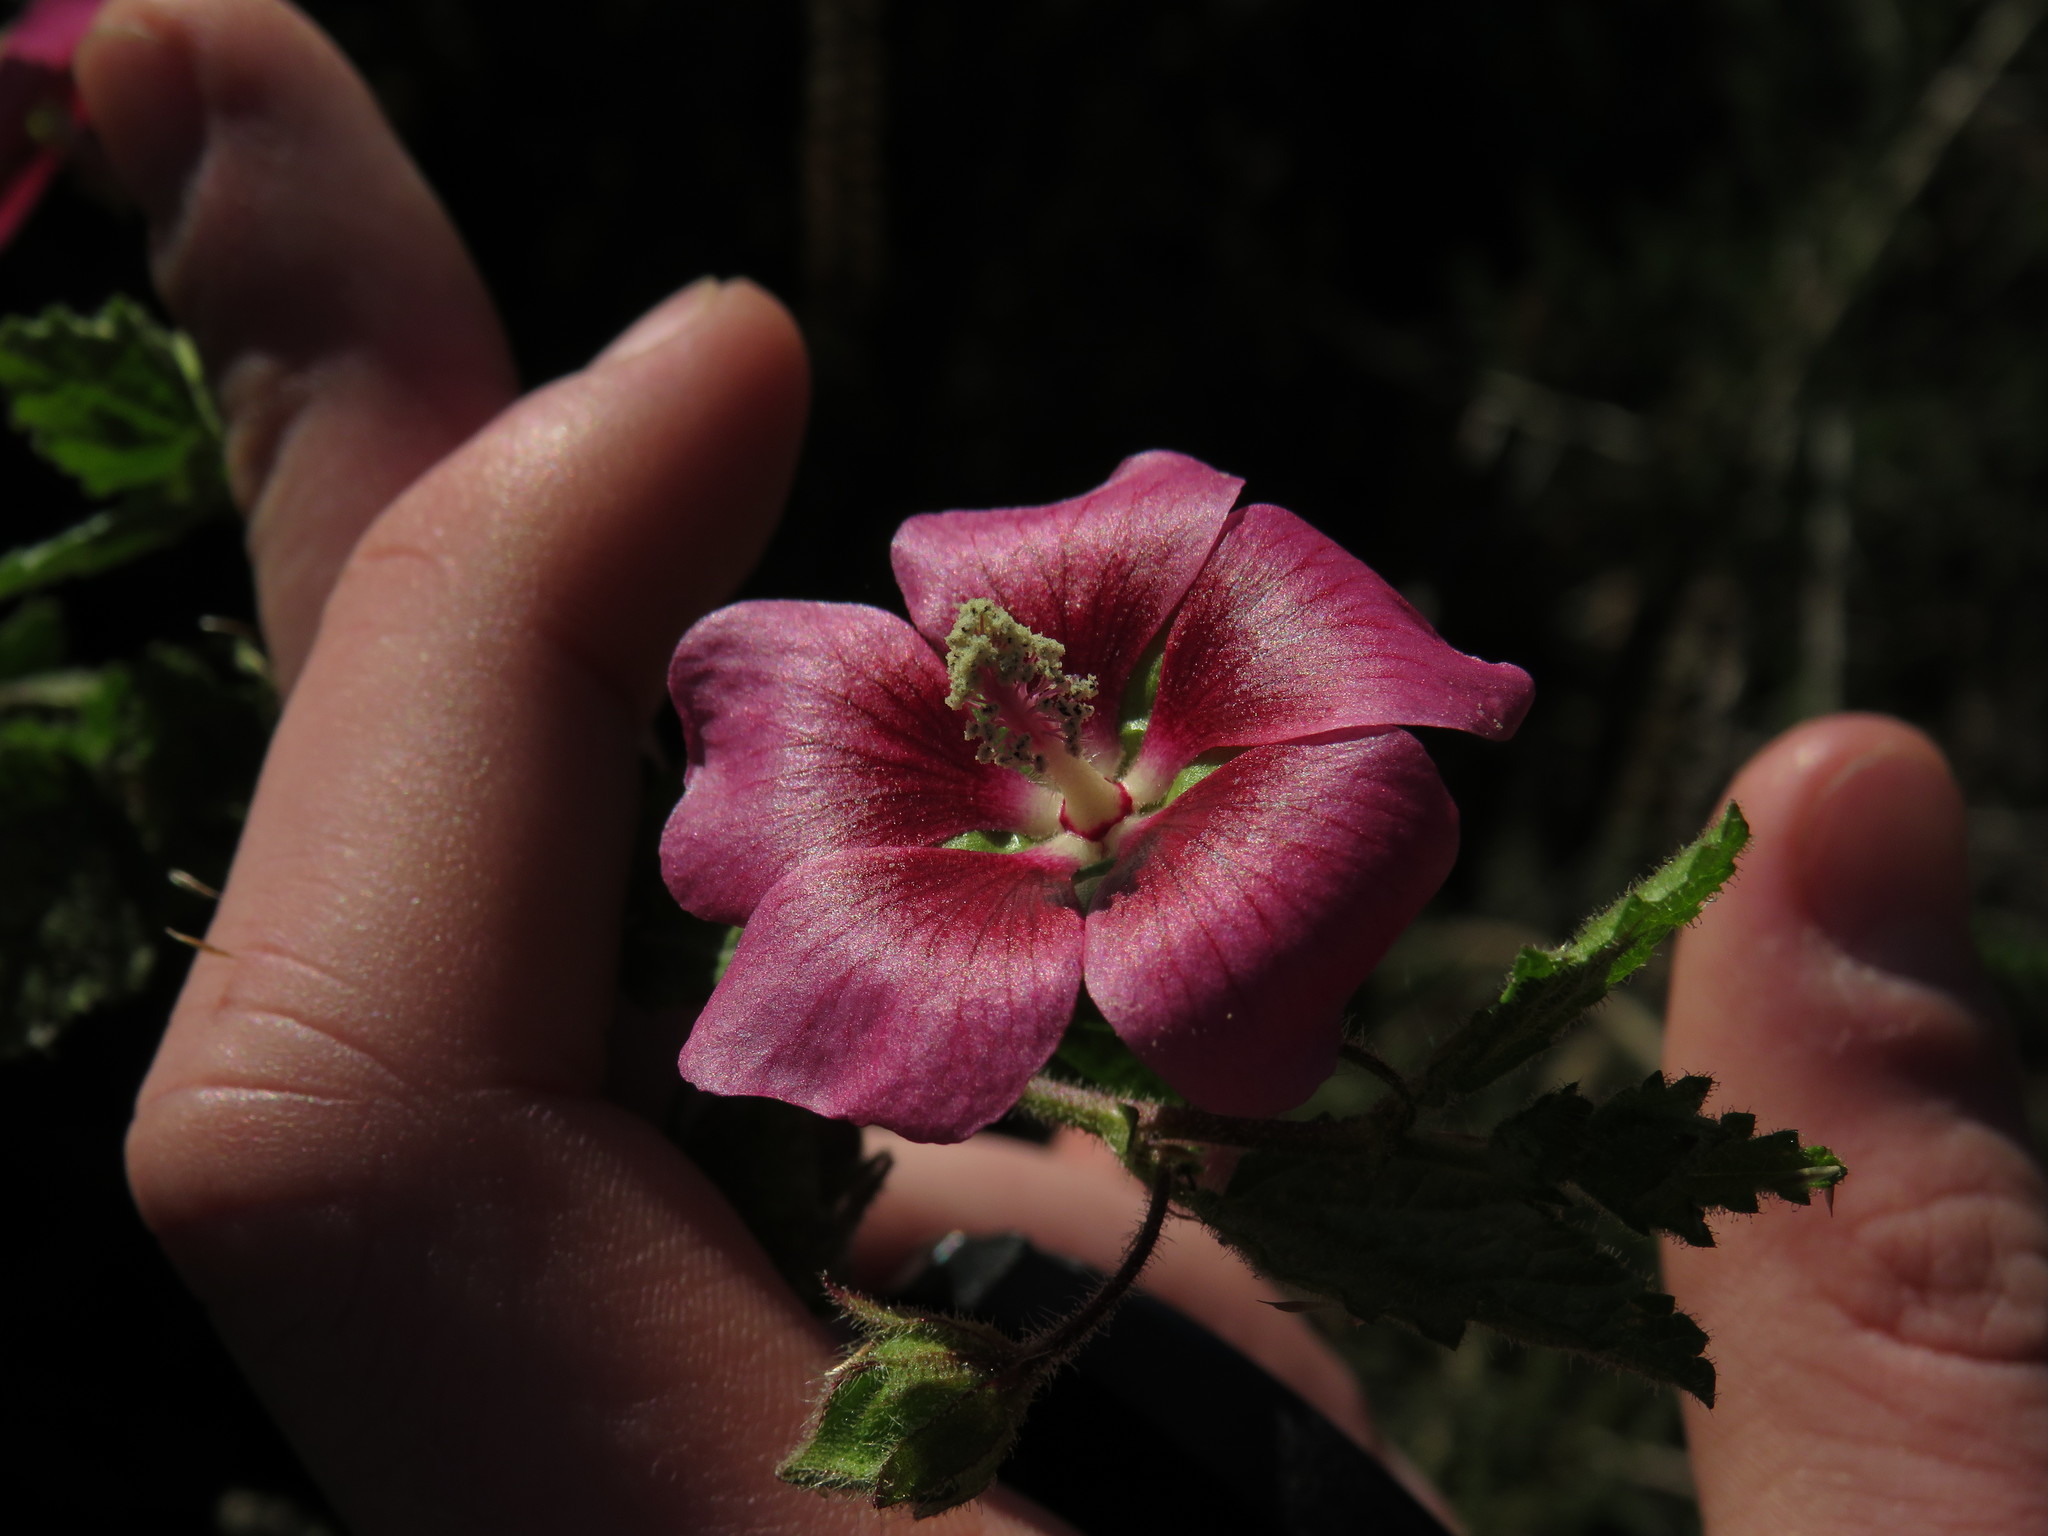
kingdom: Plantae
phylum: Tracheophyta
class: Magnoliopsida
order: Malvales
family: Malvaceae
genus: Anisodontea
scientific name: Anisodontea scabrosa
